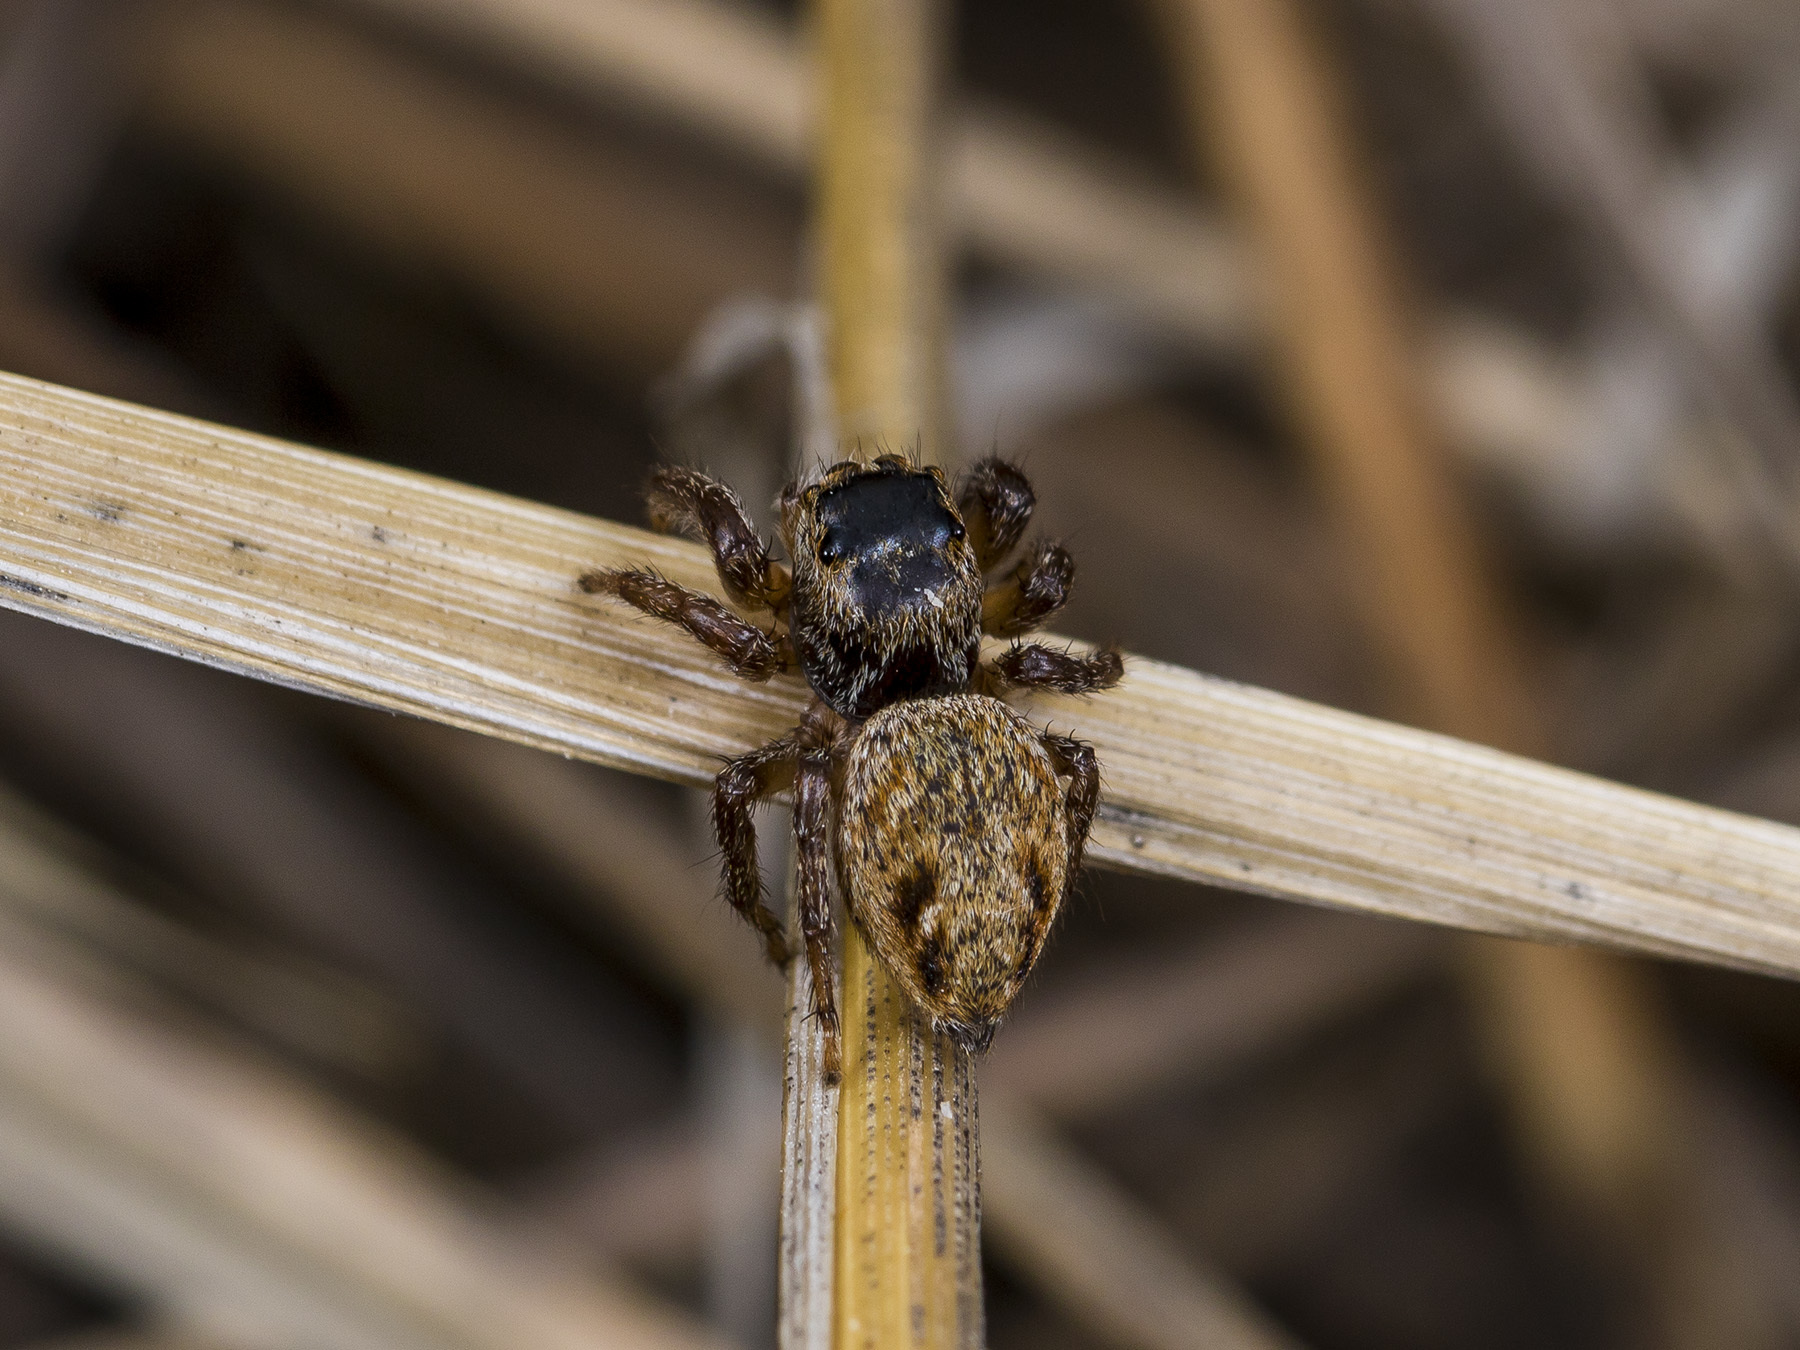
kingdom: Animalia
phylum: Arthropoda
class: Arachnida
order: Araneae
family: Salticidae
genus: Evarcha
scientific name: Evarcha arcuata
